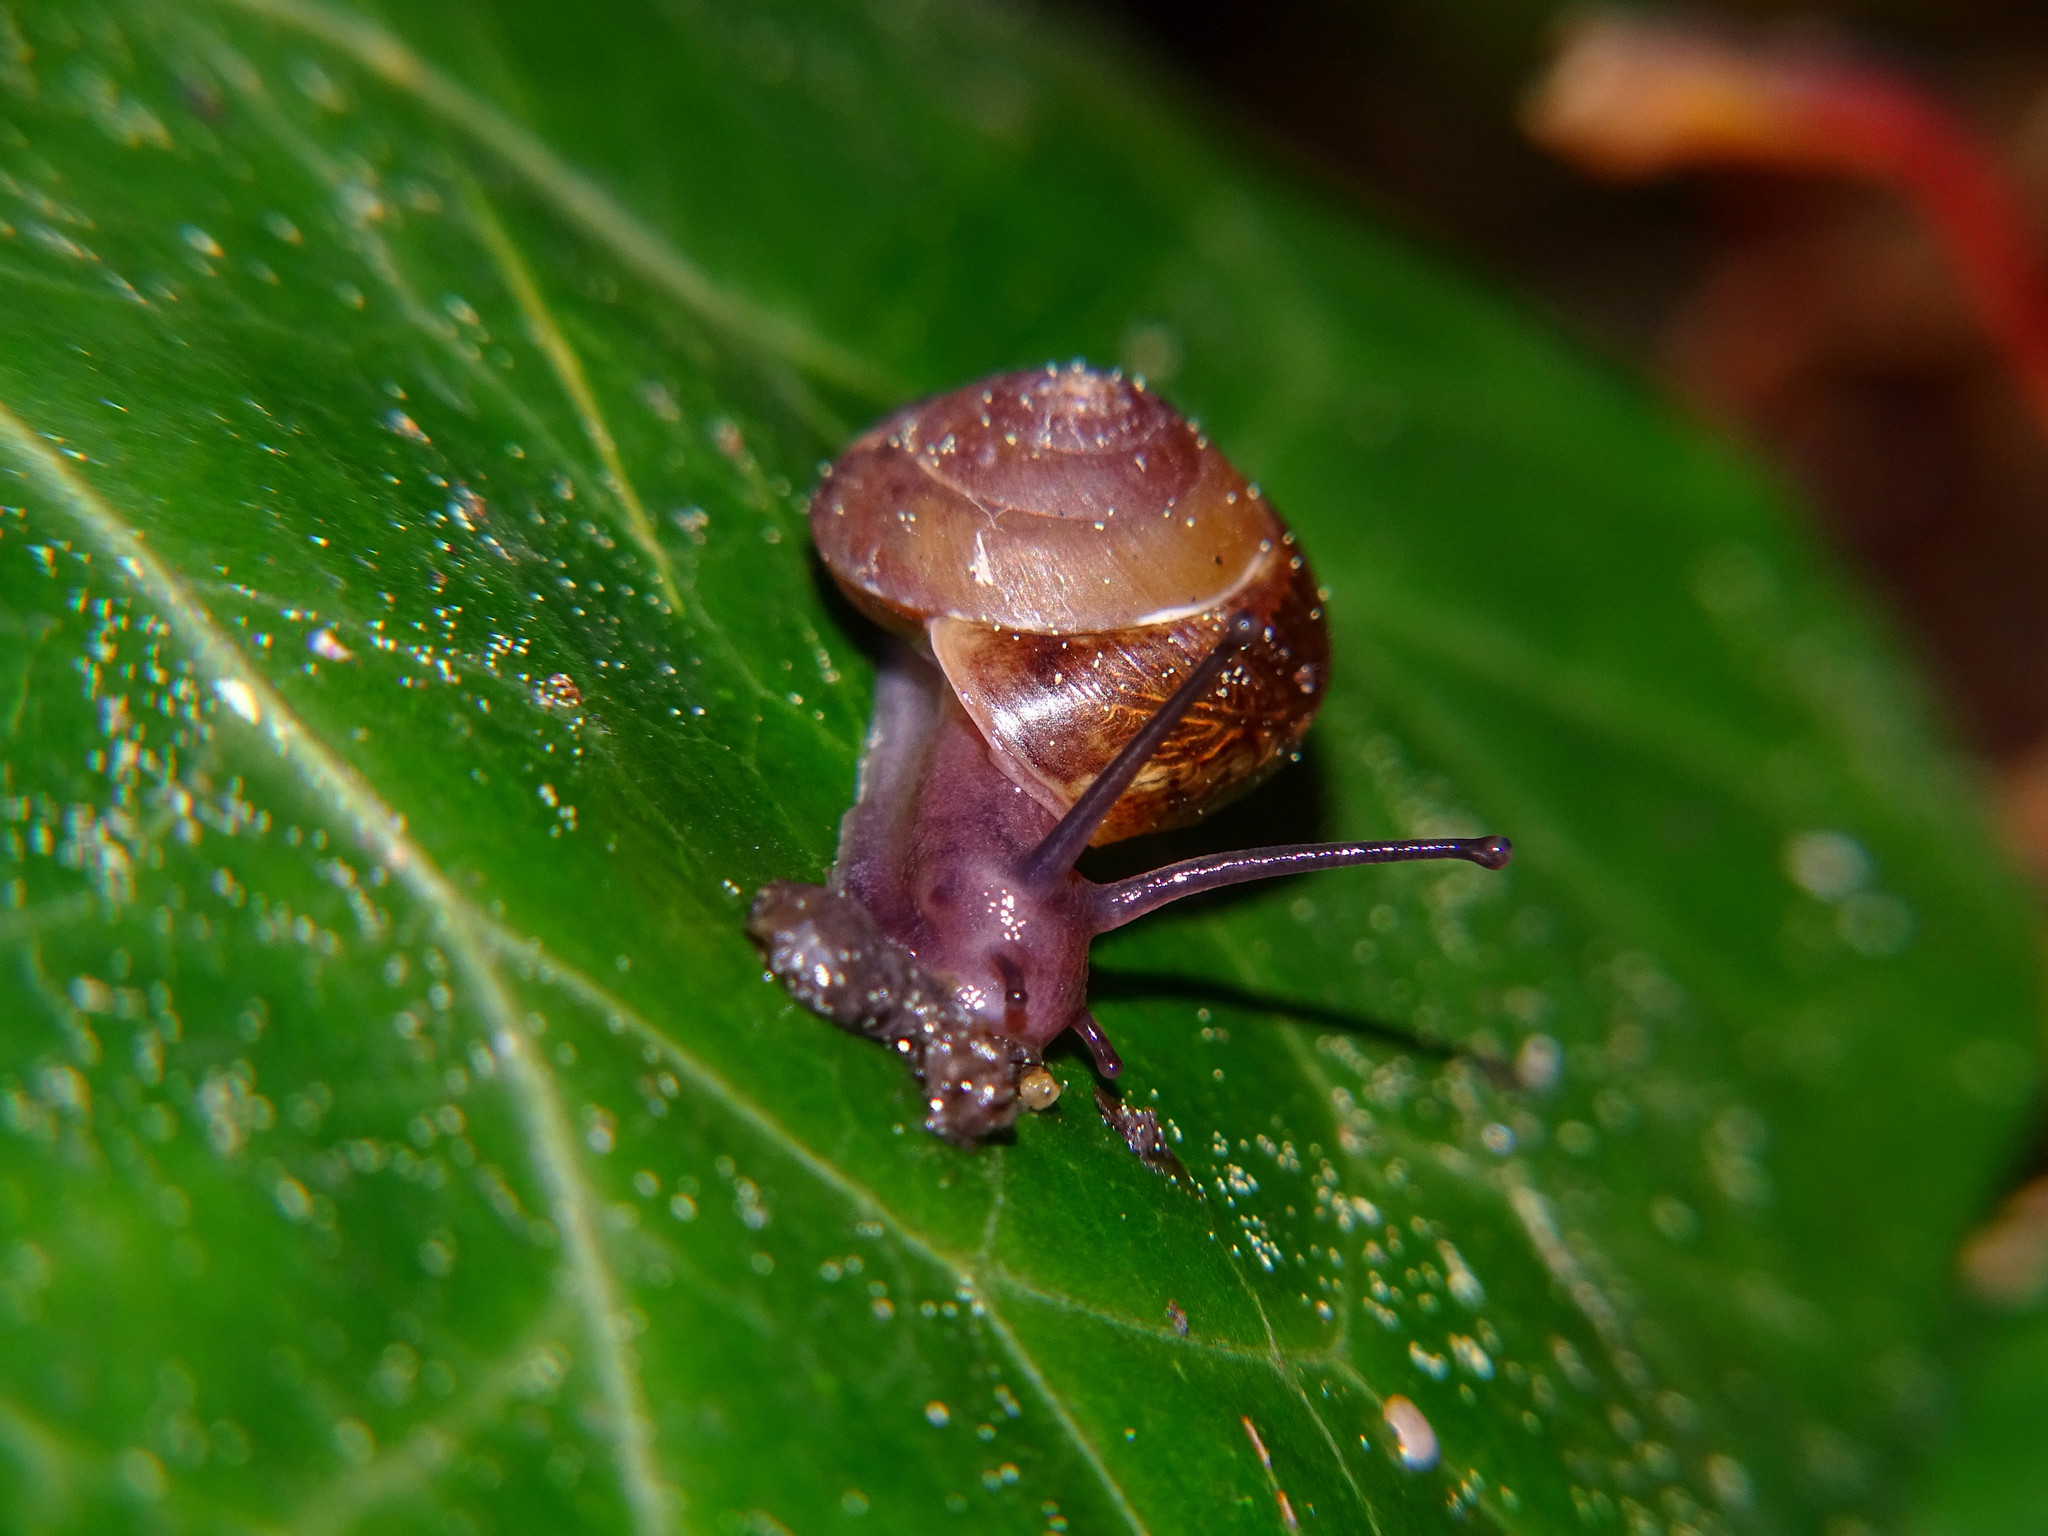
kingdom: Animalia
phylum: Mollusca
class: Gastropoda
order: Stylommatophora
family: Hygromiidae
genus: Hygromia
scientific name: Hygromia cinctella
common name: Girdled snail
